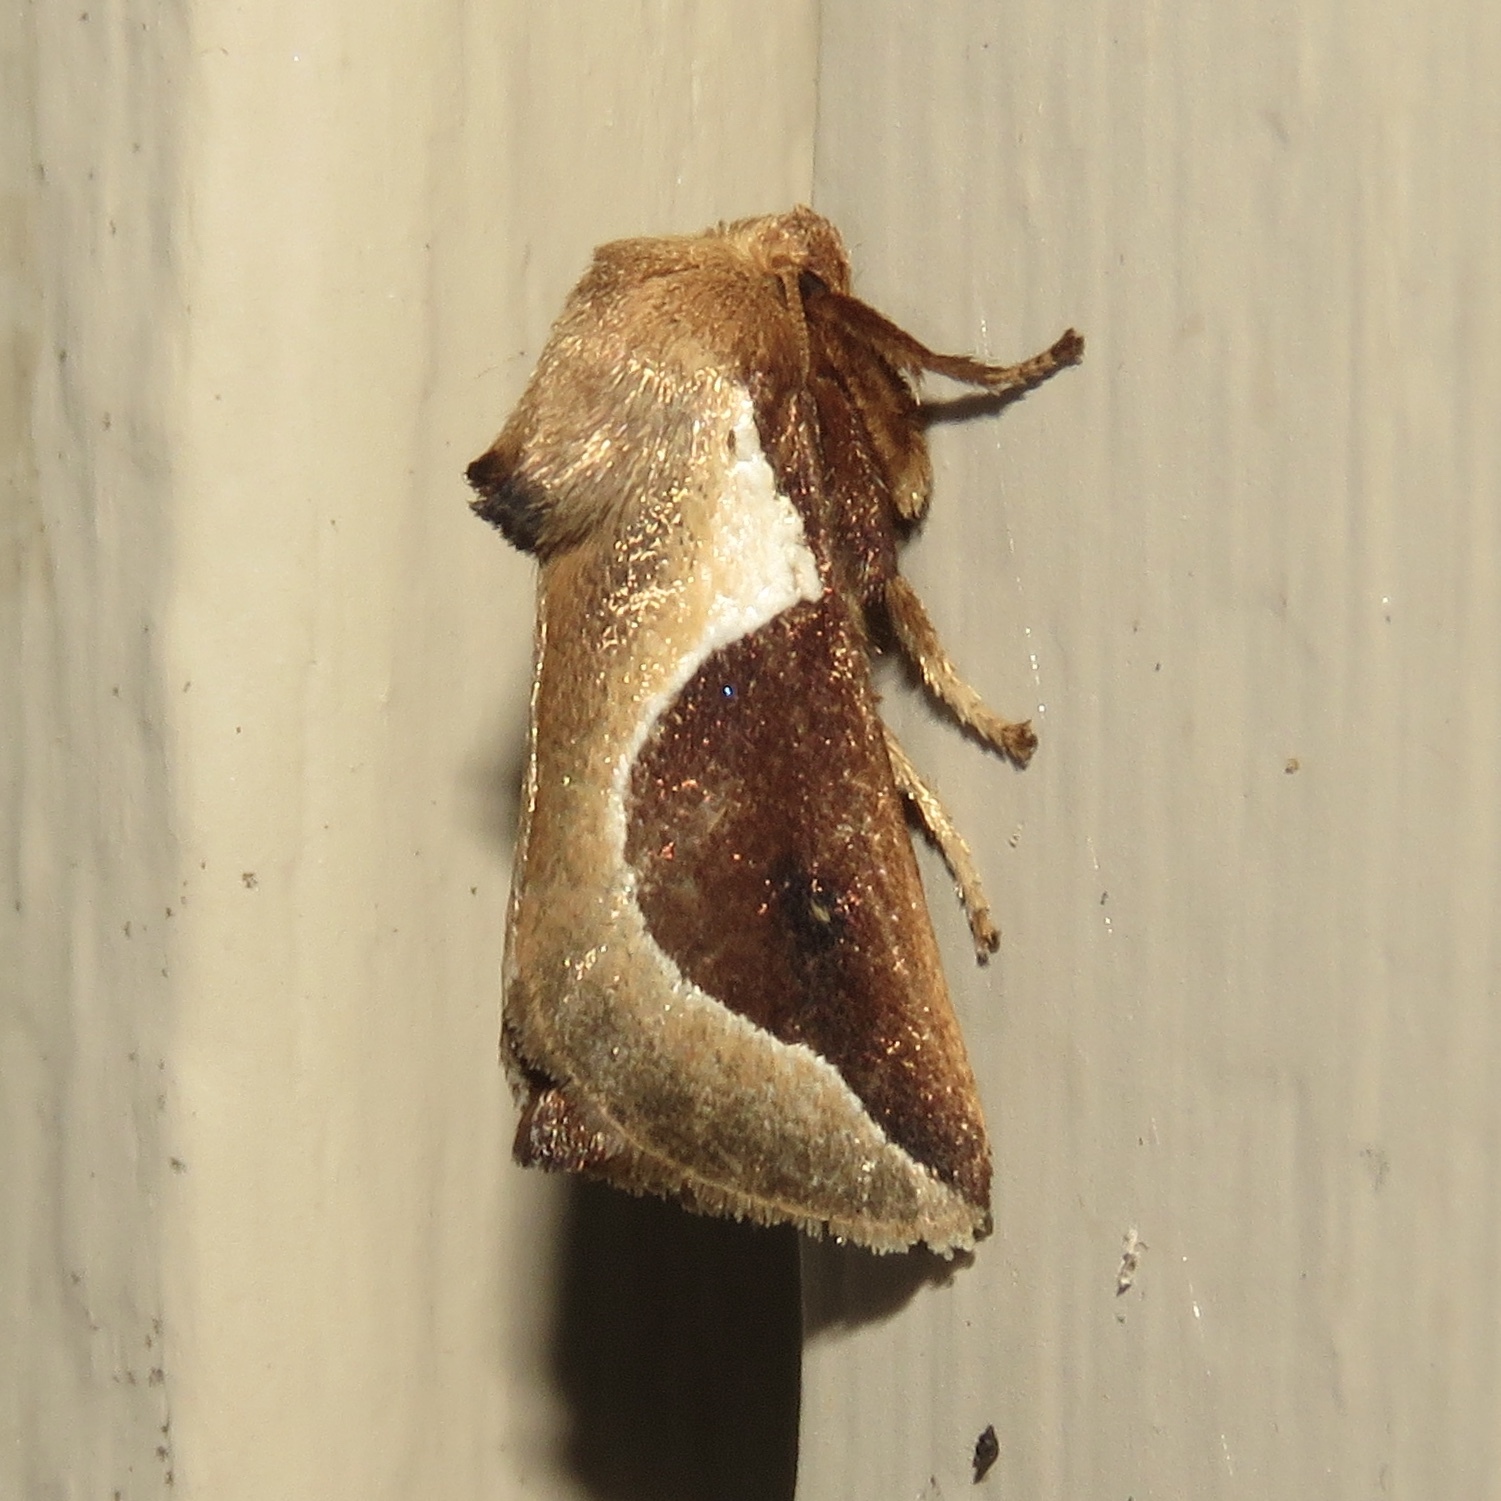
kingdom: Animalia
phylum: Arthropoda
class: Insecta
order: Lepidoptera
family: Limacodidae
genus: Prolimacodes
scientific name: Prolimacodes badia
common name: Skiff moth
